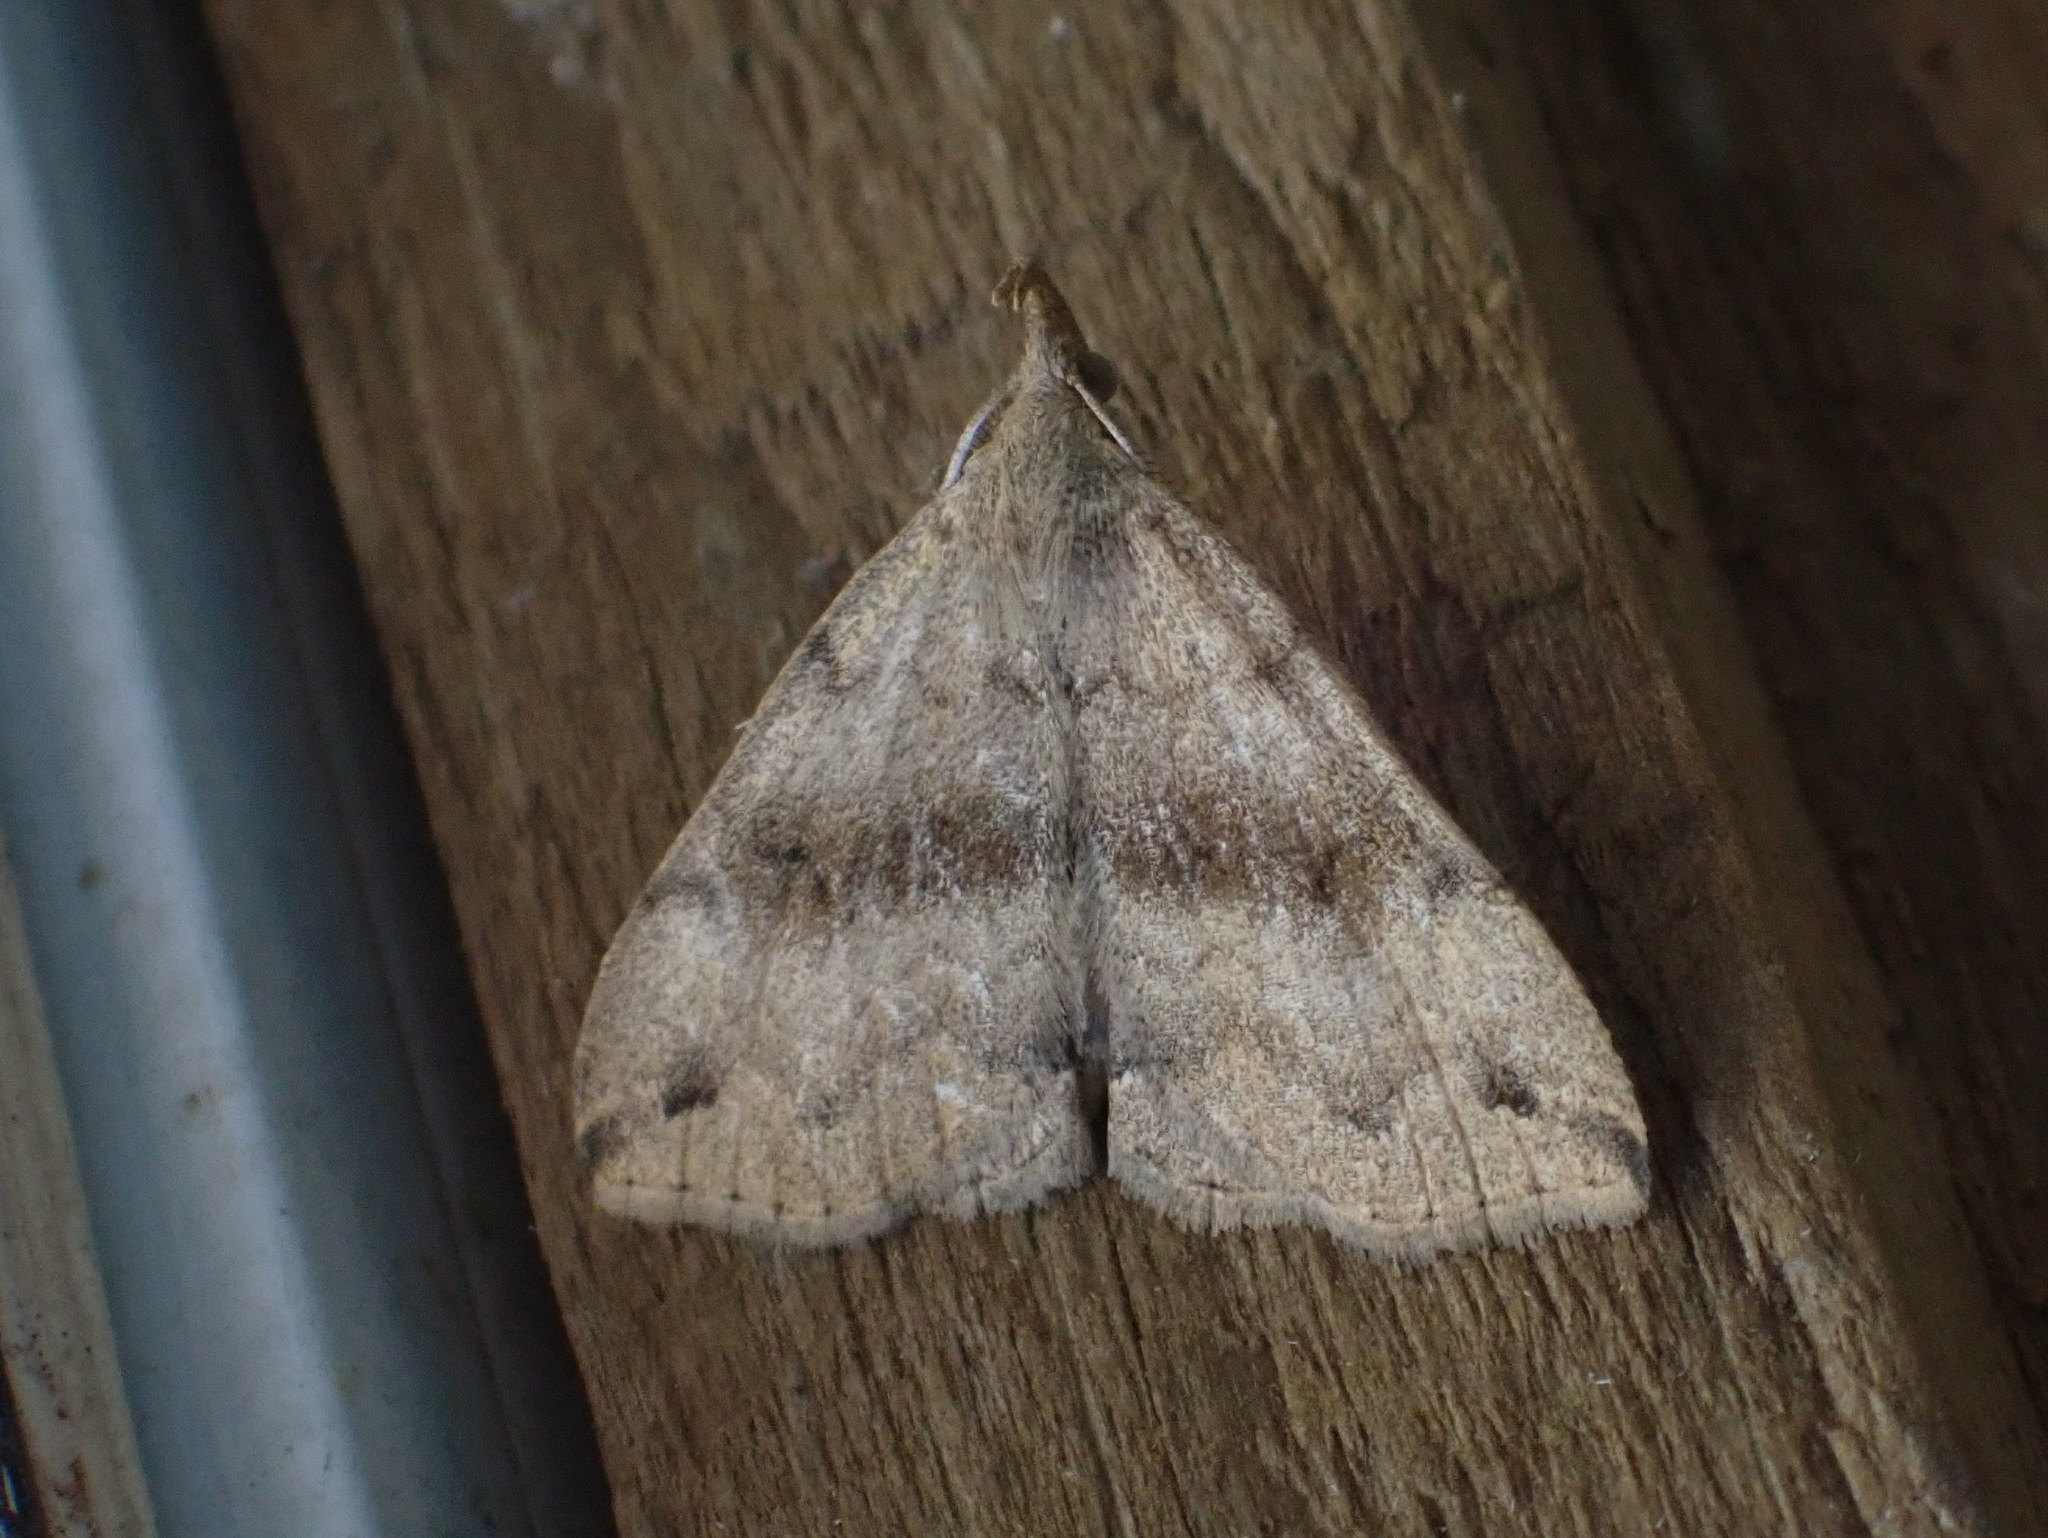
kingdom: Animalia
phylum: Arthropoda
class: Insecta
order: Lepidoptera
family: Erebidae
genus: Phalaenostola
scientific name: Phalaenostola eumelusalis
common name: Dark phalaenostola moth
